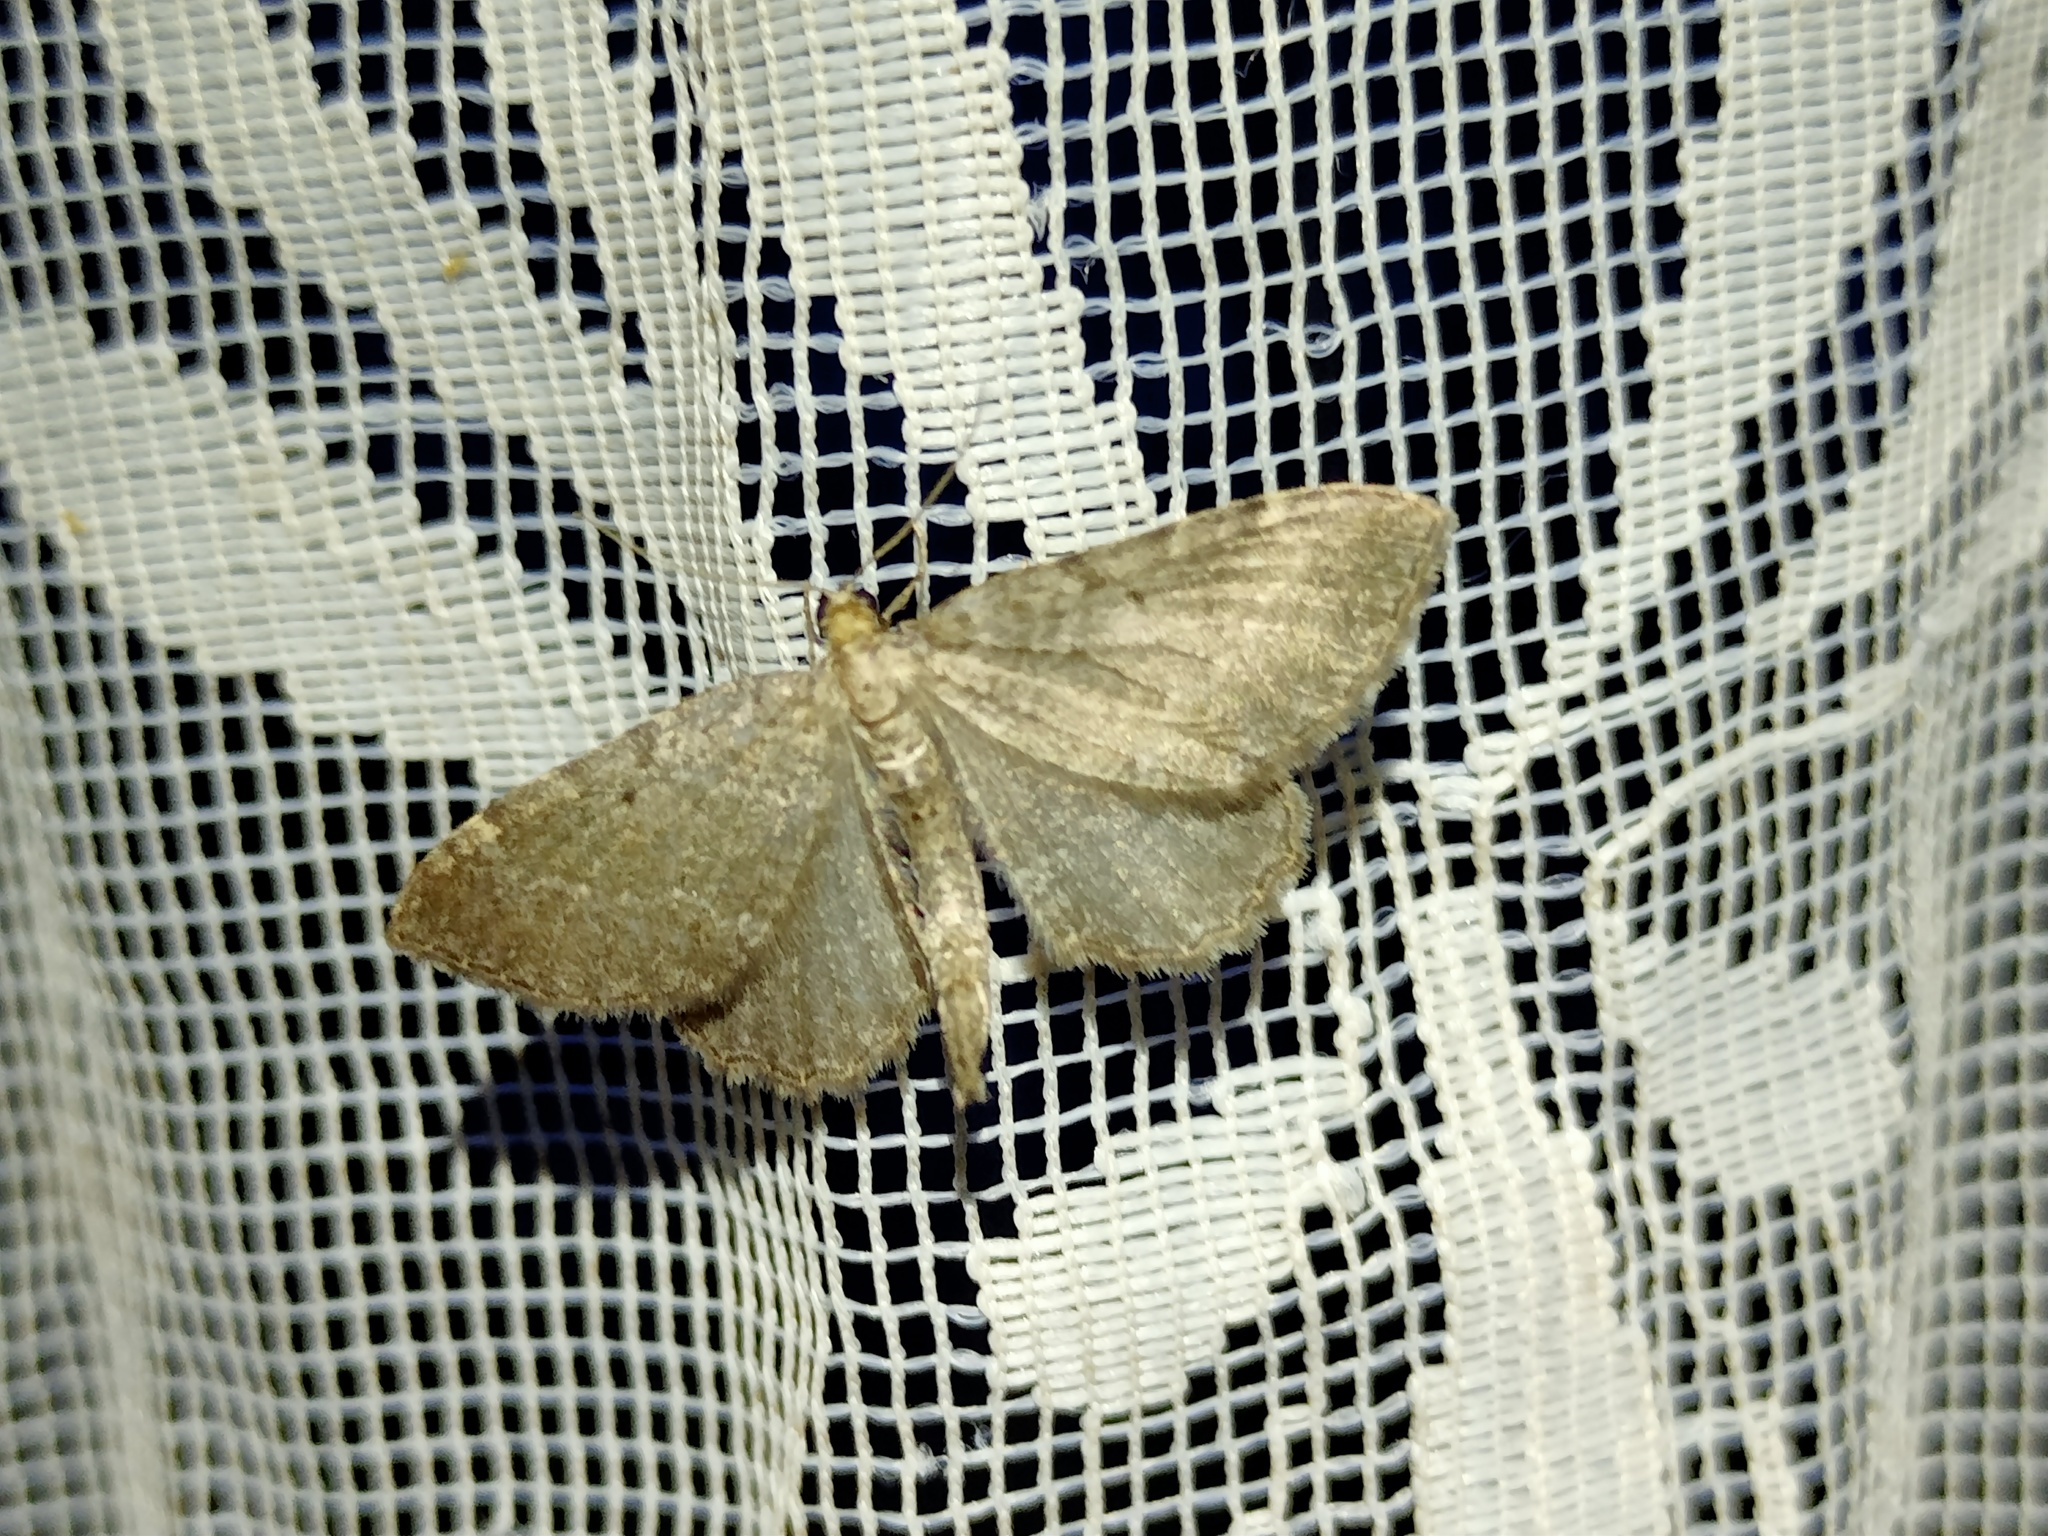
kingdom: Animalia
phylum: Arthropoda
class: Insecta
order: Lepidoptera
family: Geometridae
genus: Philereme
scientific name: Philereme vetulata
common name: Brown scallop
